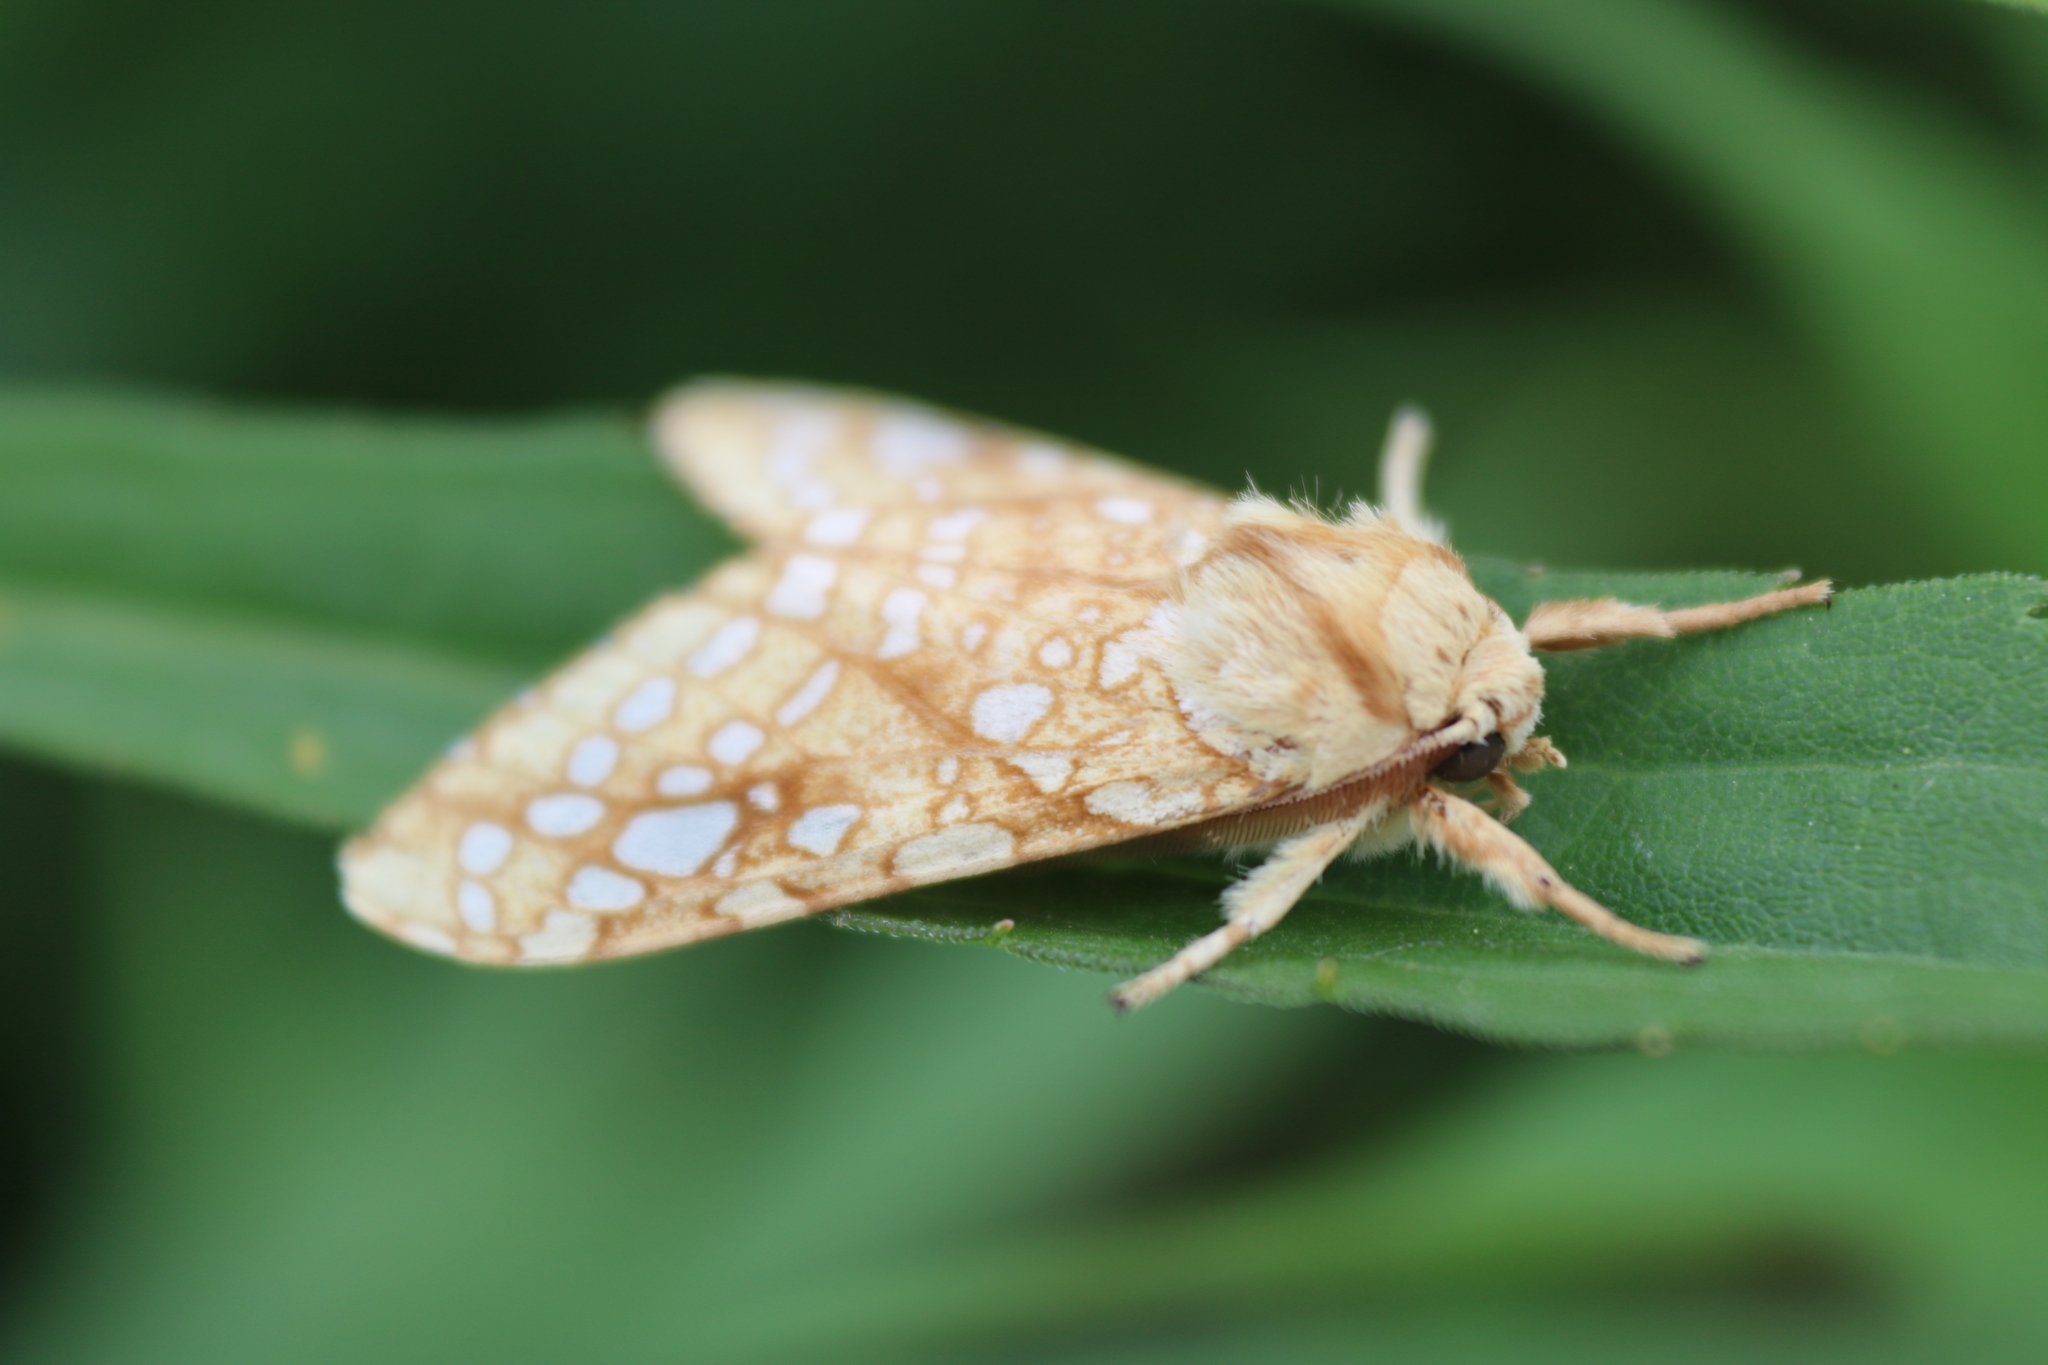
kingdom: Animalia
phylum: Arthropoda
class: Insecta
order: Lepidoptera
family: Erebidae
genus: Lophocampa
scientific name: Lophocampa caryae
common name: Hickory tussock moth
